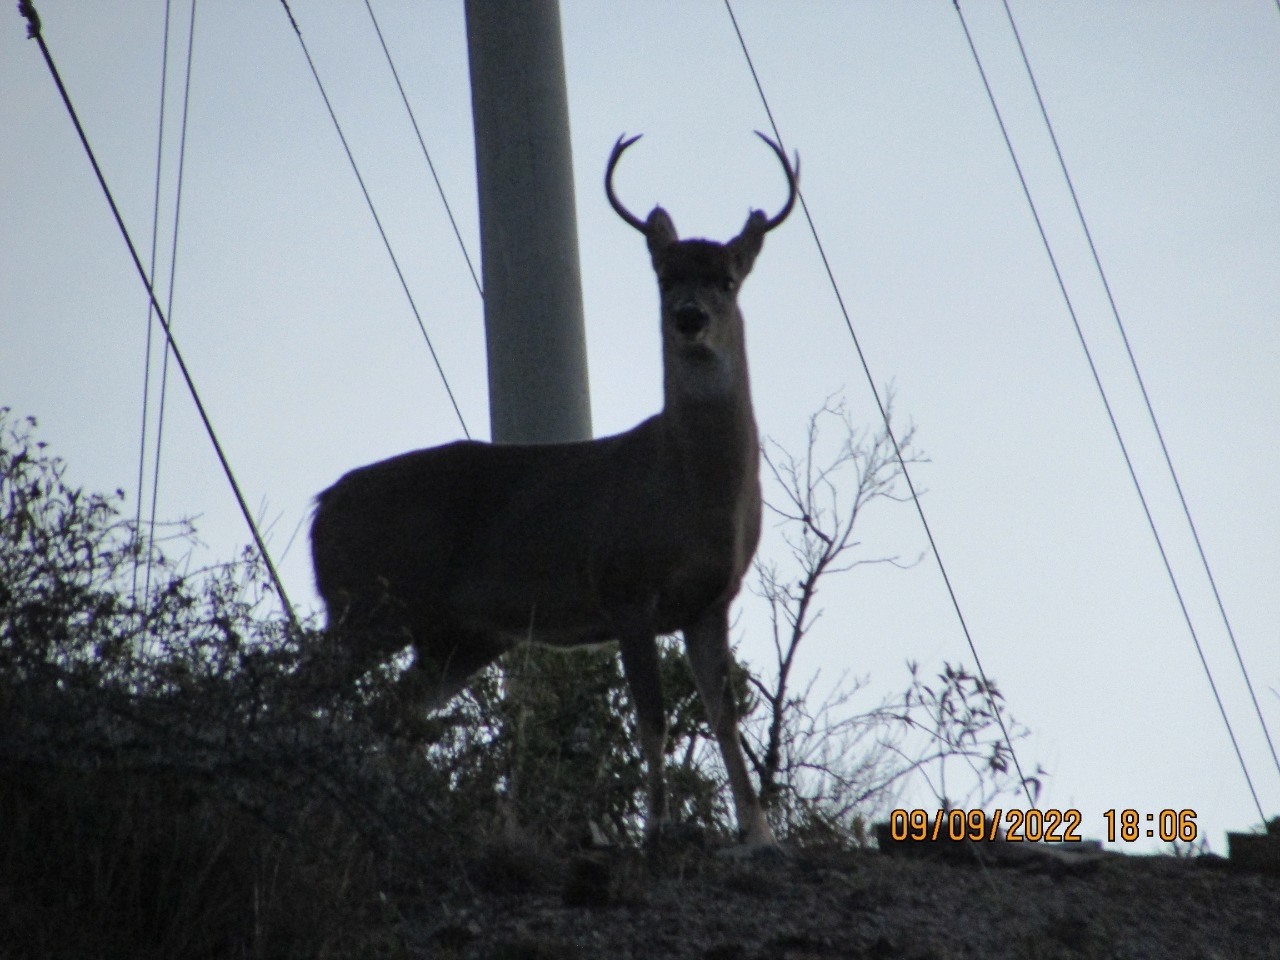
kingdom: Animalia
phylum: Chordata
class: Mammalia
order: Artiodactyla
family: Cervidae
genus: Odocoileus
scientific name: Odocoileus virginianus
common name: White-tailed deer
